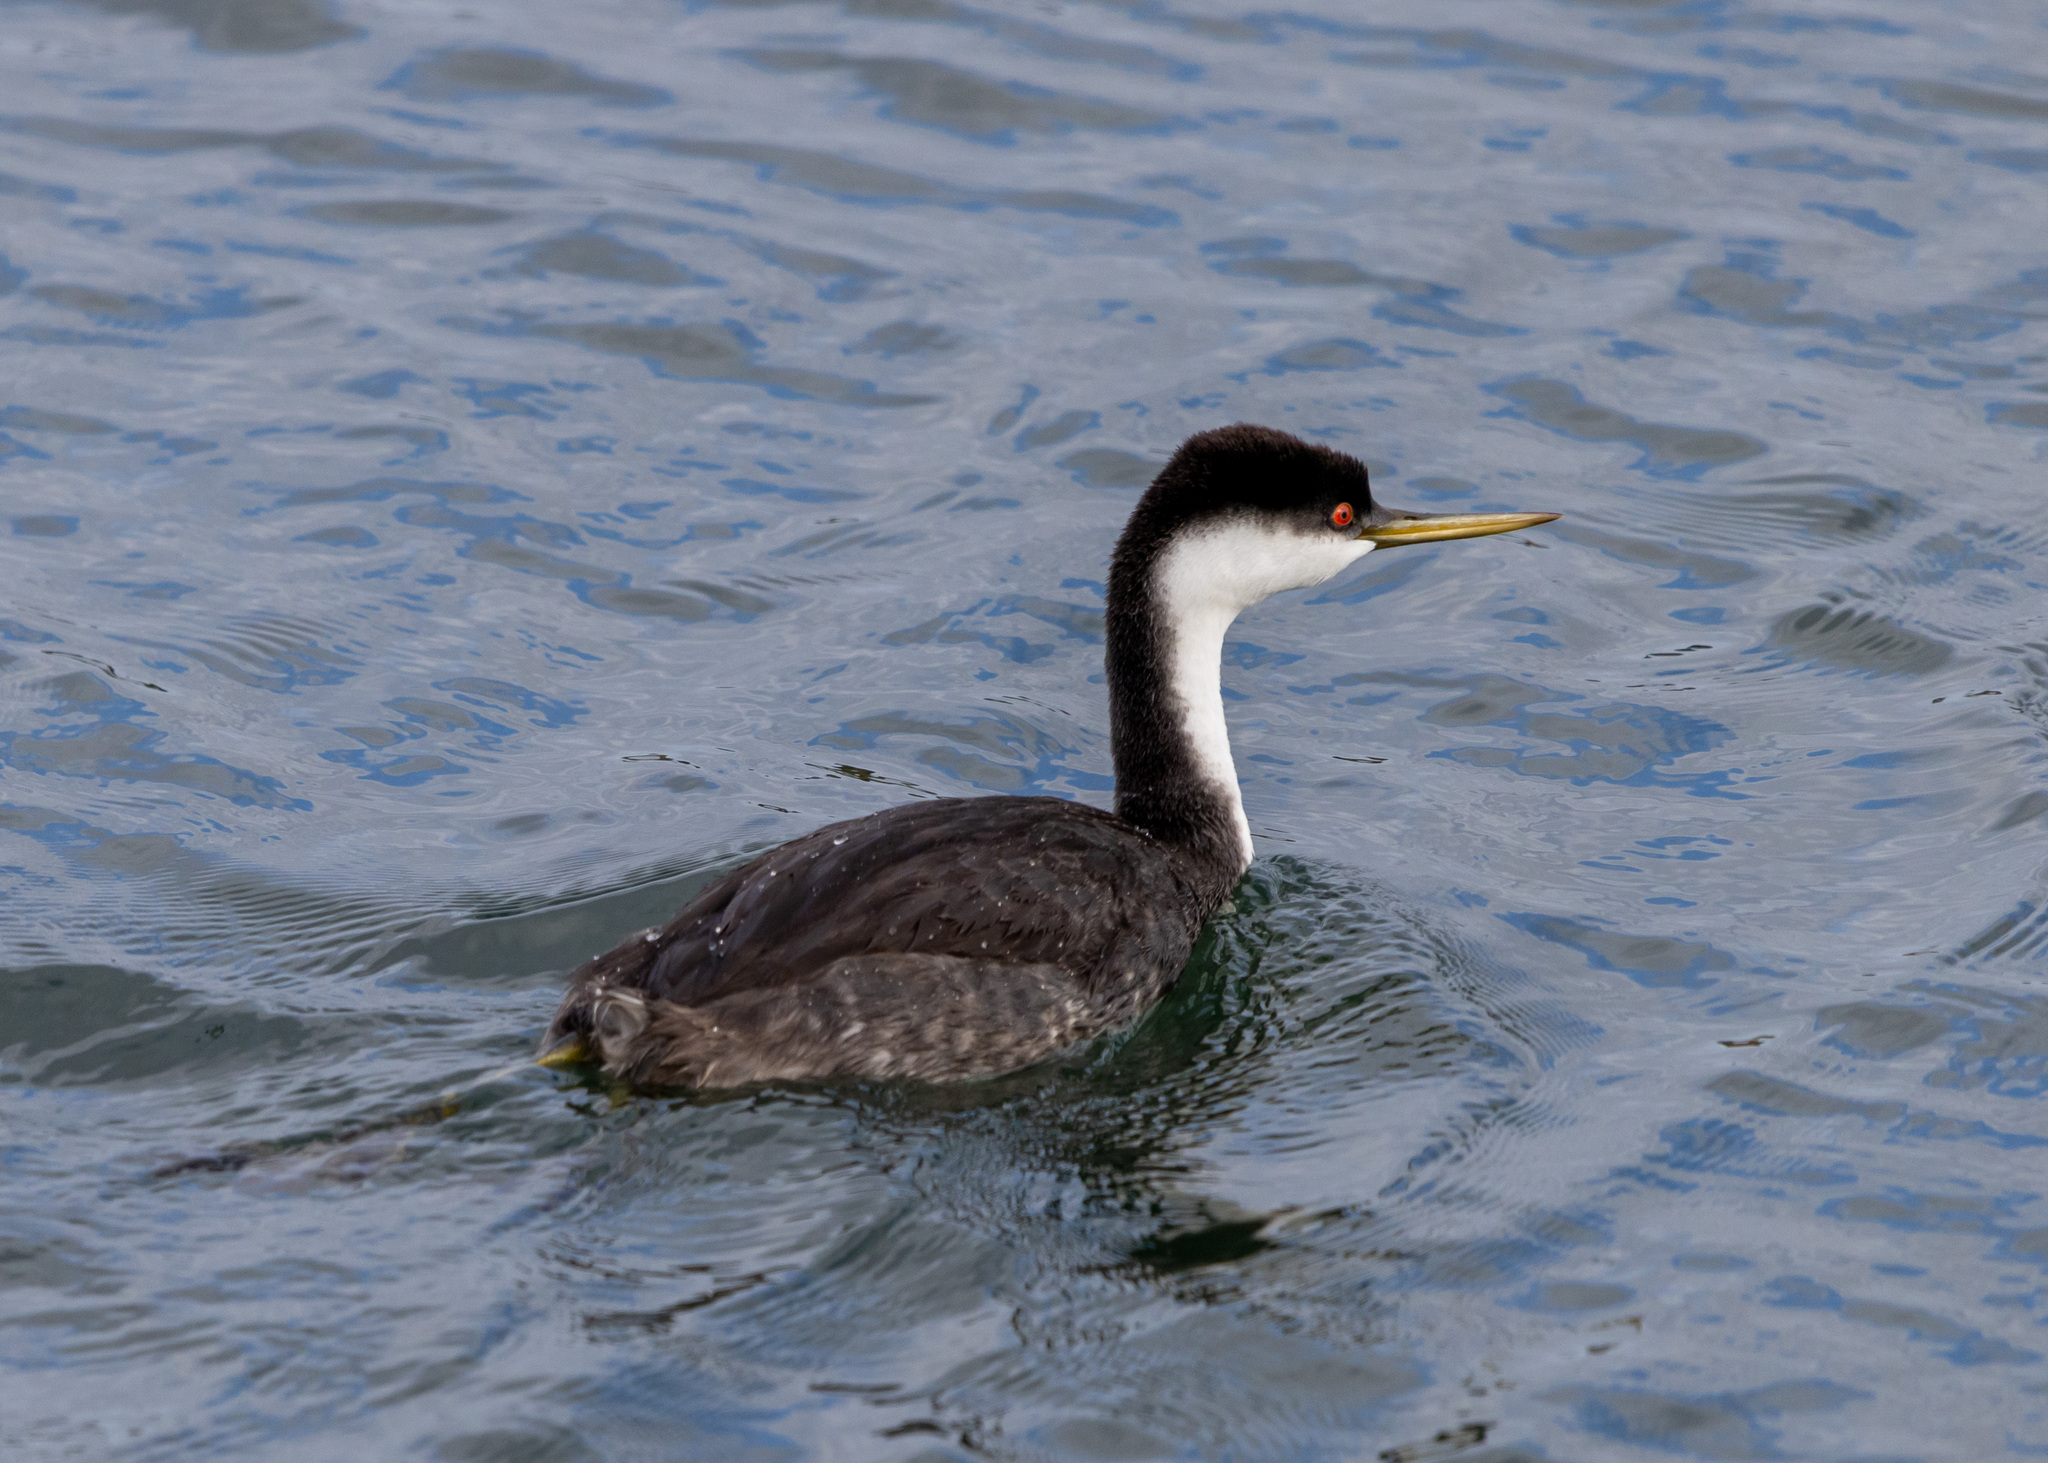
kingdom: Animalia
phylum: Chordata
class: Aves
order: Podicipediformes
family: Podicipedidae
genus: Aechmophorus
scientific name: Aechmophorus occidentalis
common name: Western grebe
